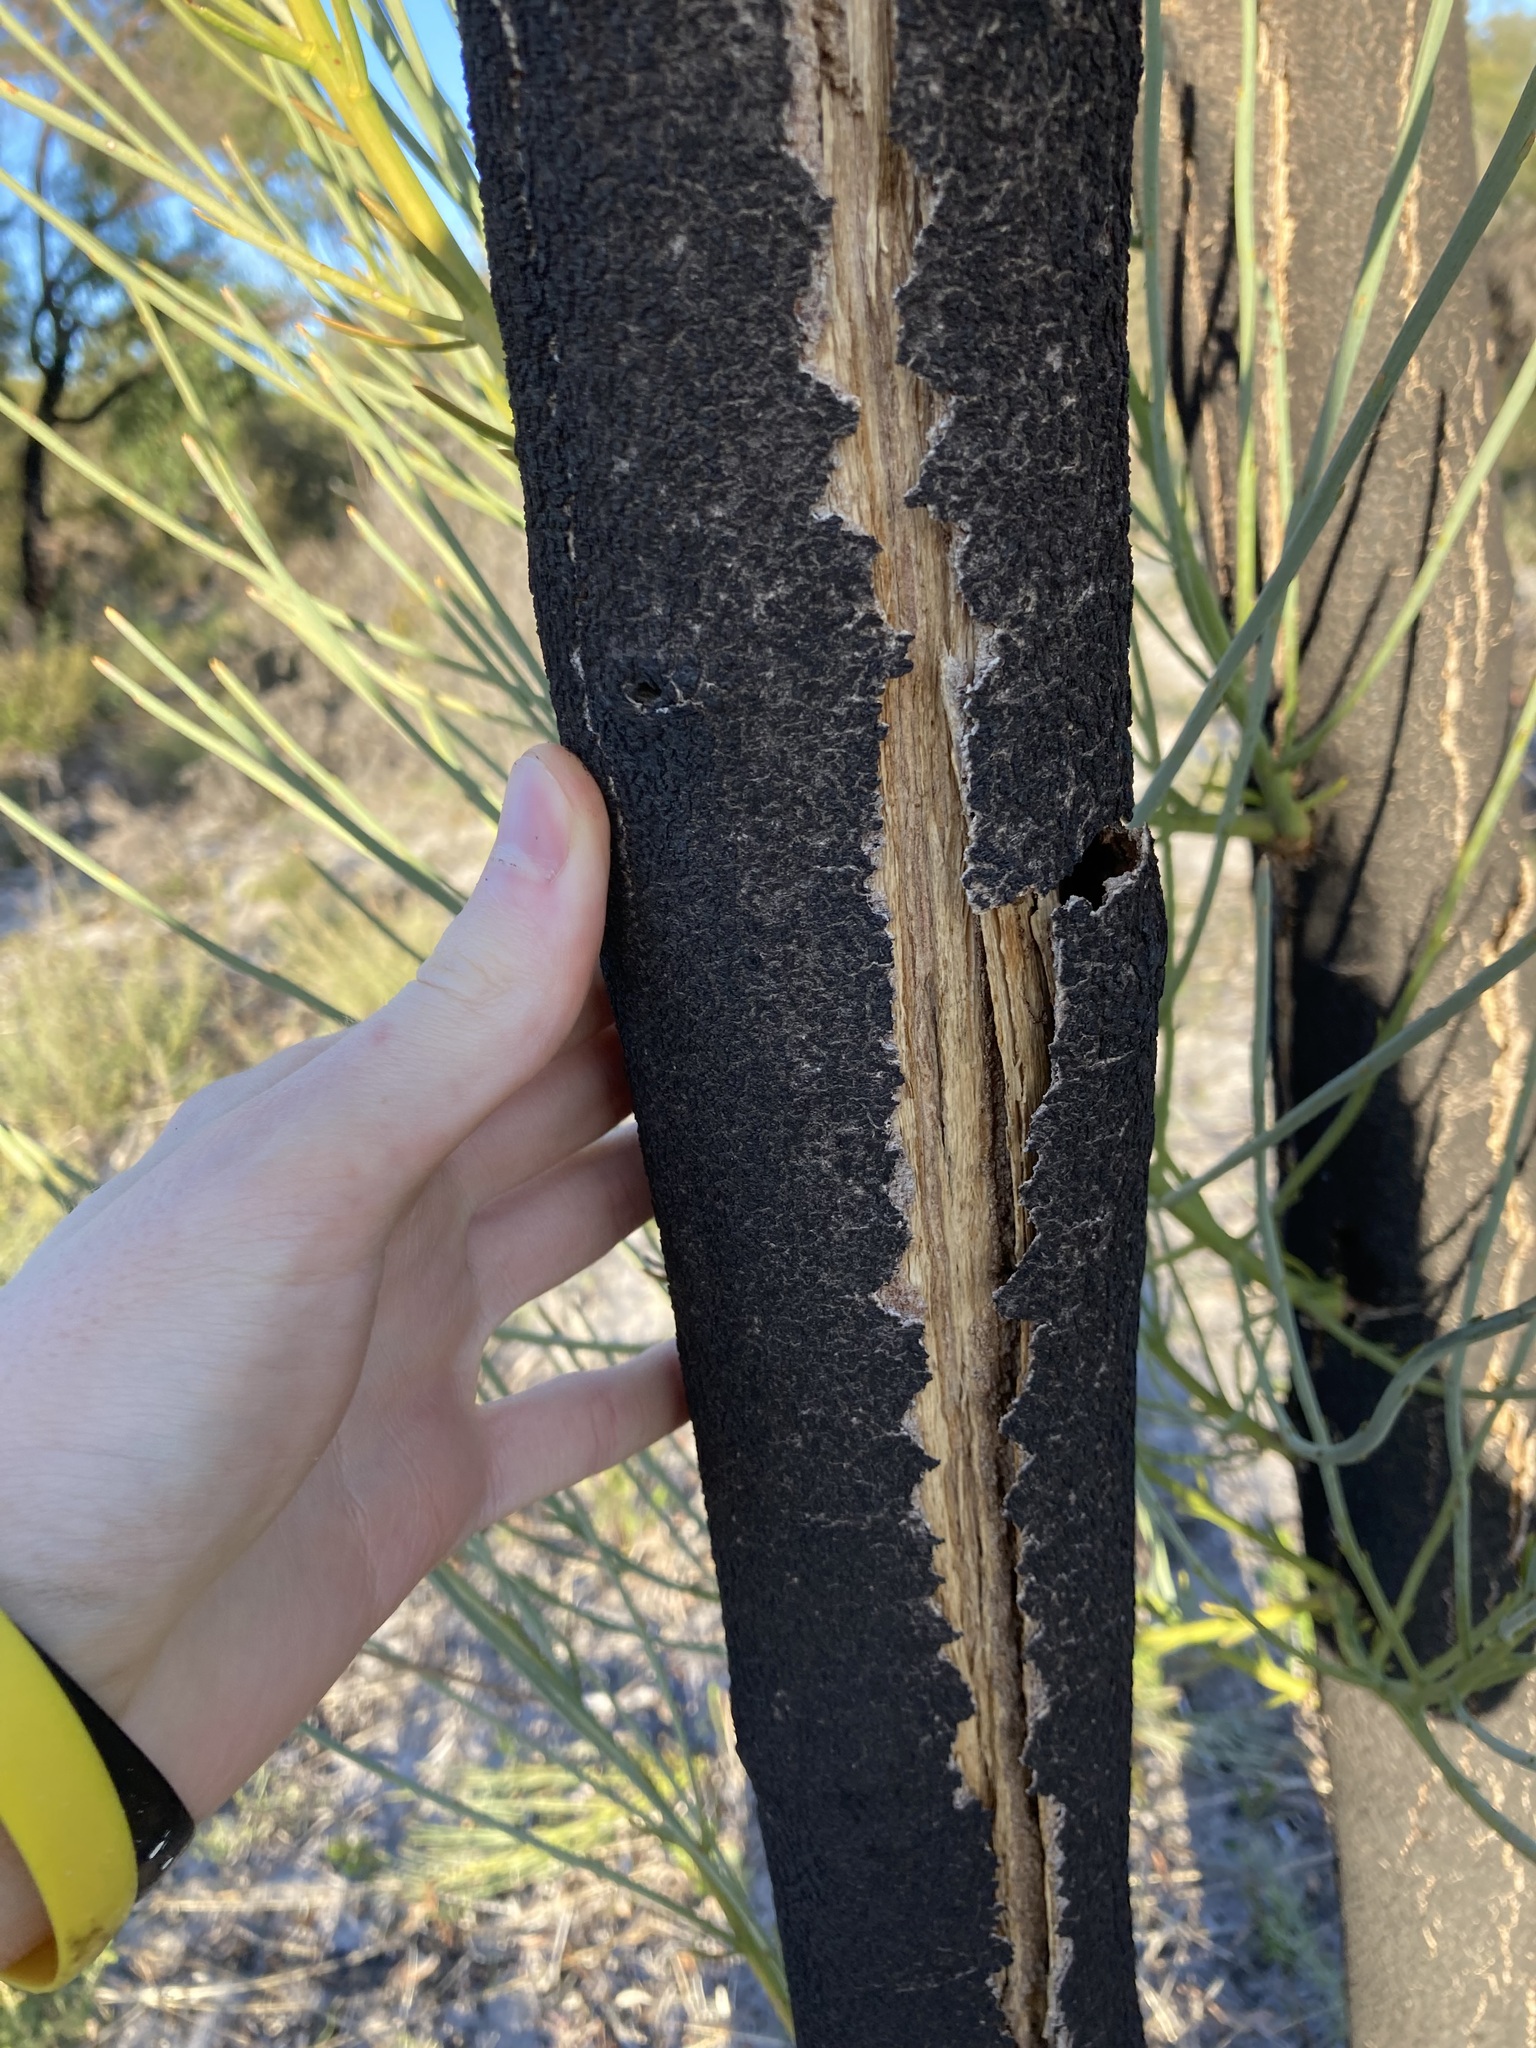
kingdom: Plantae
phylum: Tracheophyta
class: Magnoliopsida
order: Santalales
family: Loranthaceae
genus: Nuytsia
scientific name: Nuytsia floribunda
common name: Western australian christmastree
